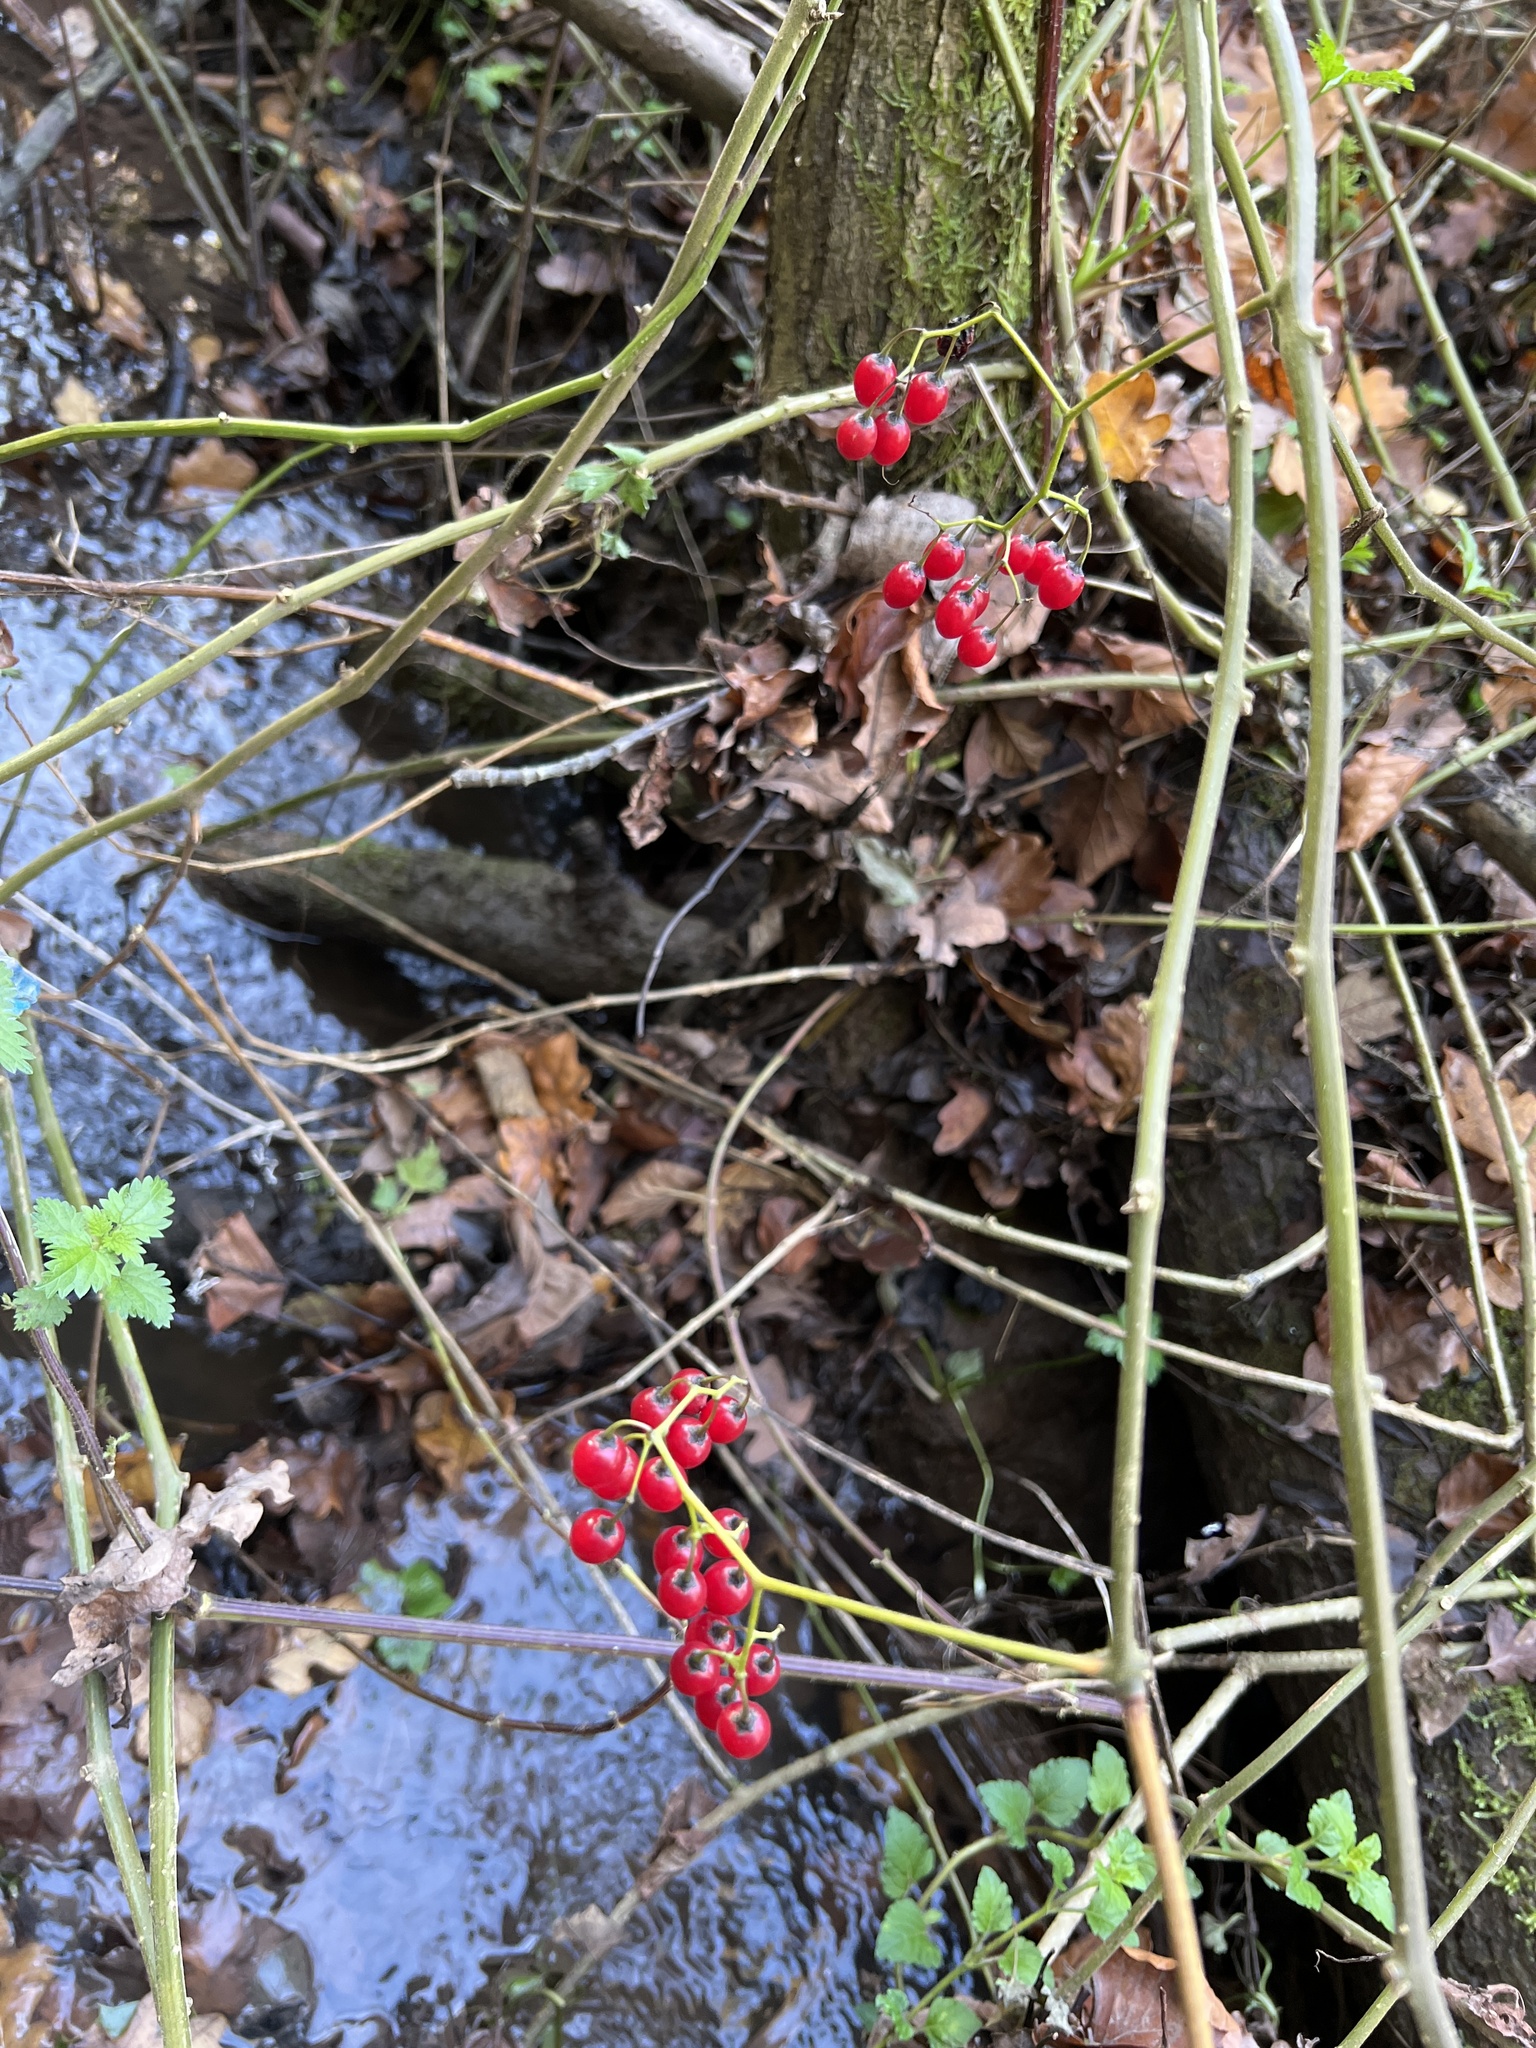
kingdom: Plantae
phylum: Tracheophyta
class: Magnoliopsida
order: Solanales
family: Solanaceae
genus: Solanum
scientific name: Solanum dulcamara
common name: Climbing nightshade
